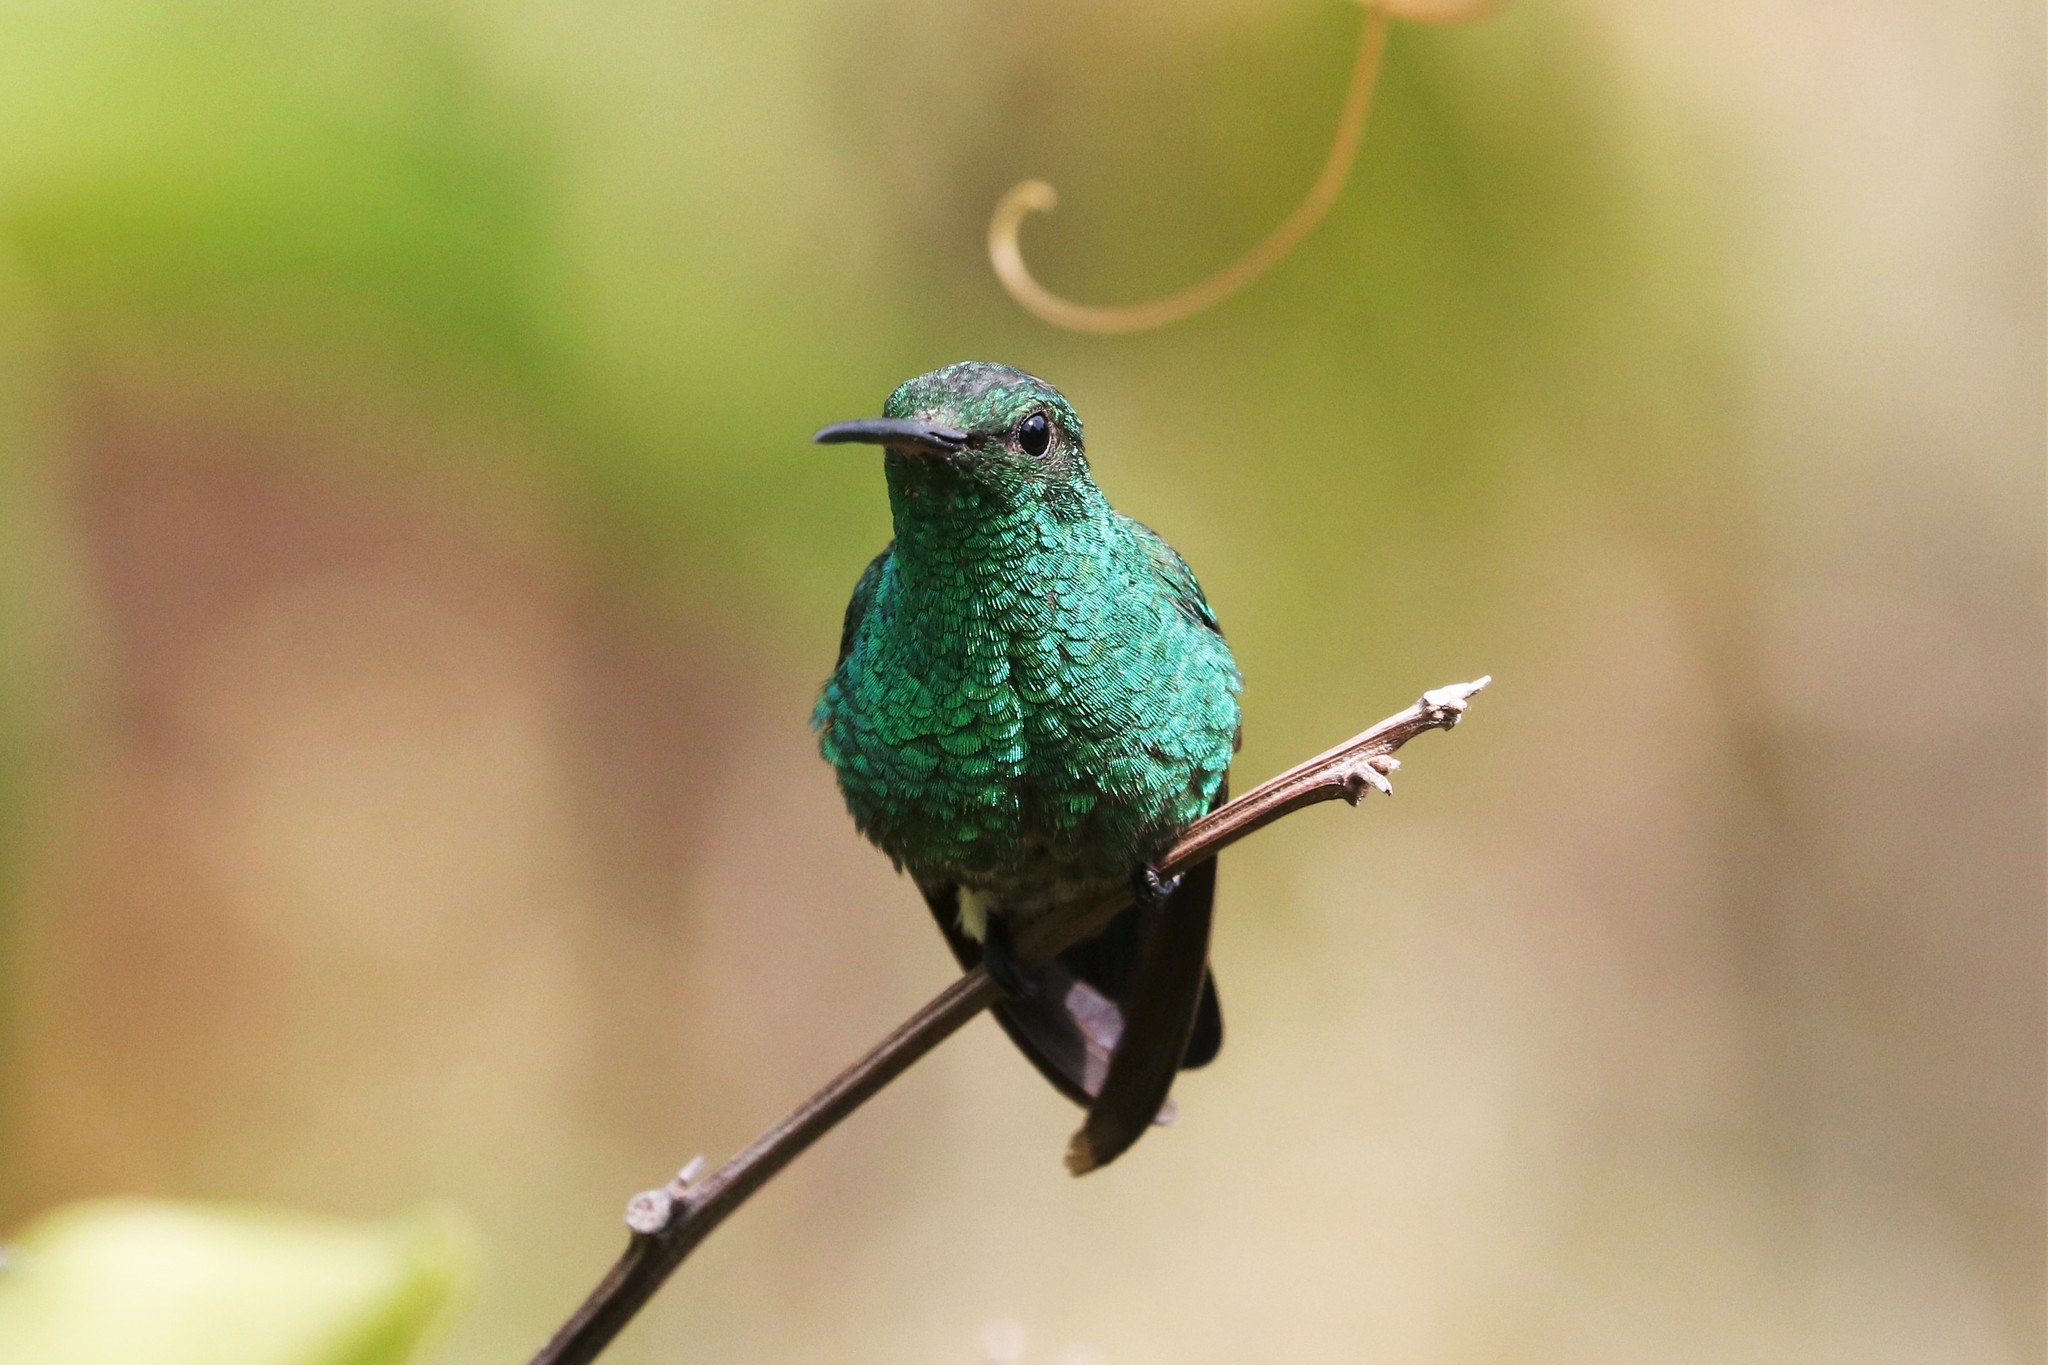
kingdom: Animalia
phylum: Chordata
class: Aves
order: Apodiformes
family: Trochilidae
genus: Saucerottia
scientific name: Saucerottia saucerottei
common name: Steely-vented hummingbird
